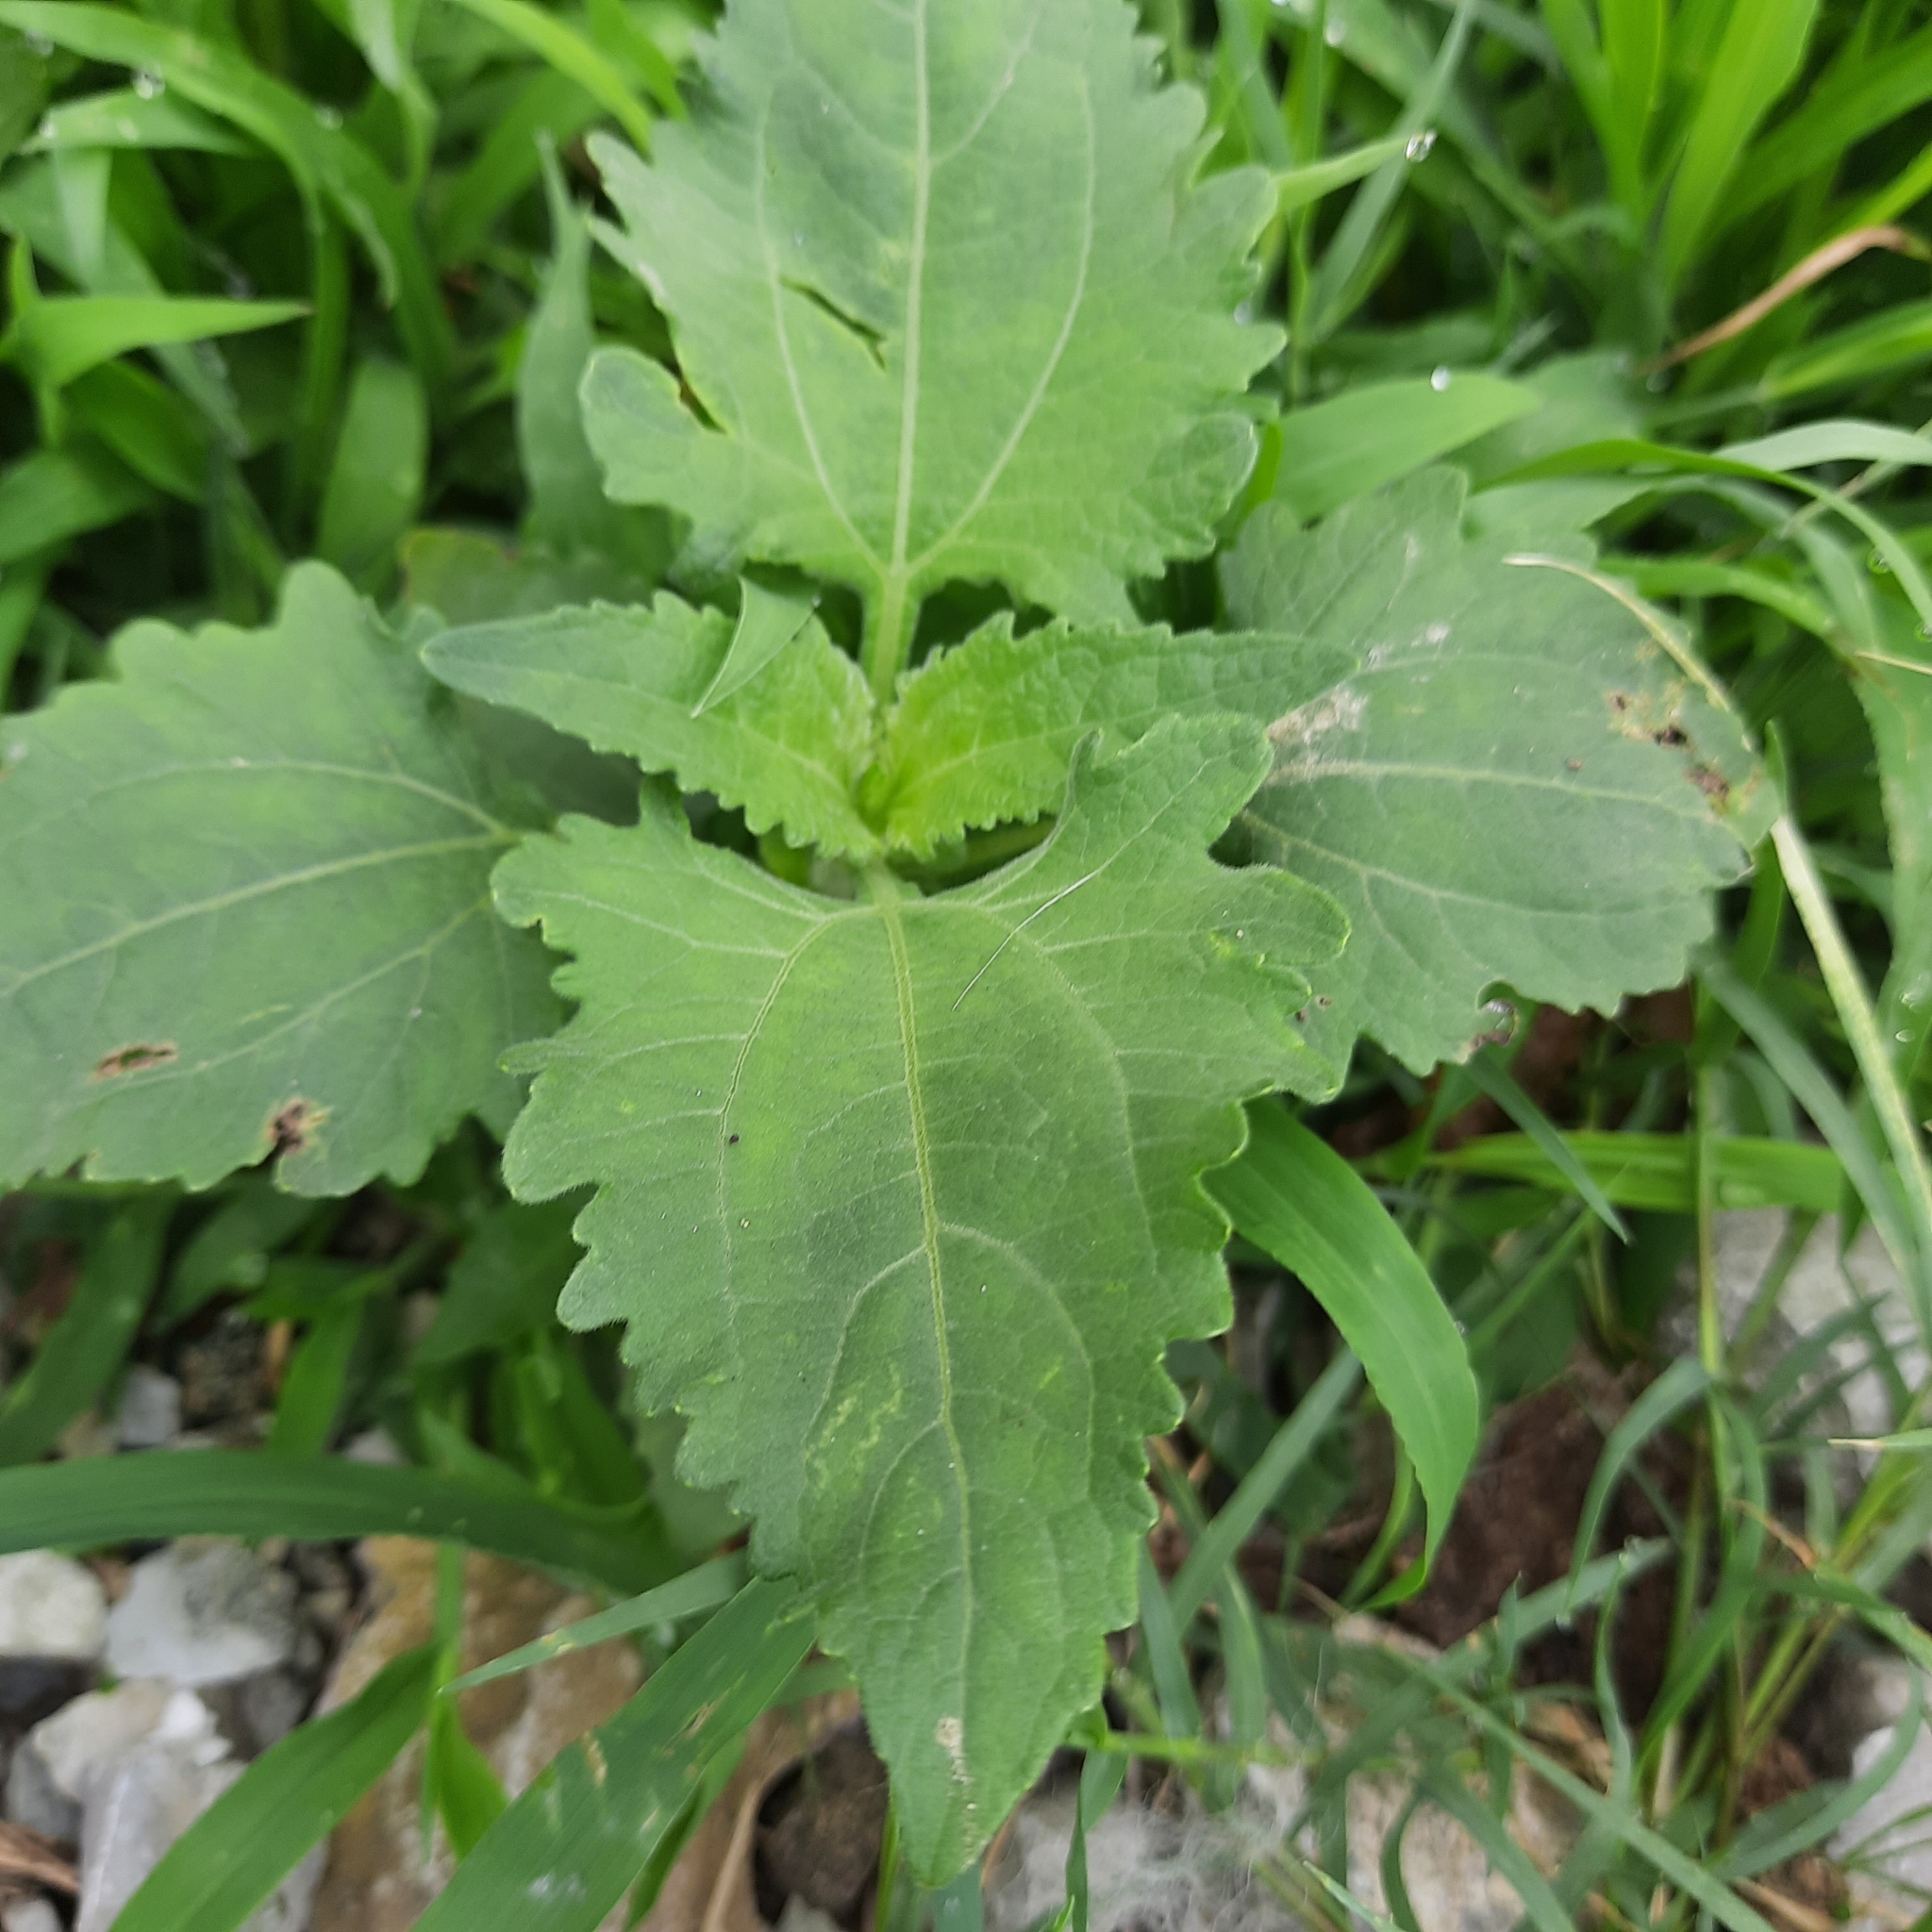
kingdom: Plantae
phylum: Tracheophyta
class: Magnoliopsida
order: Asterales
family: Asteraceae
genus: Cyclachaena
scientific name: Cyclachaena xanthiifolia
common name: Giant sumpweed
